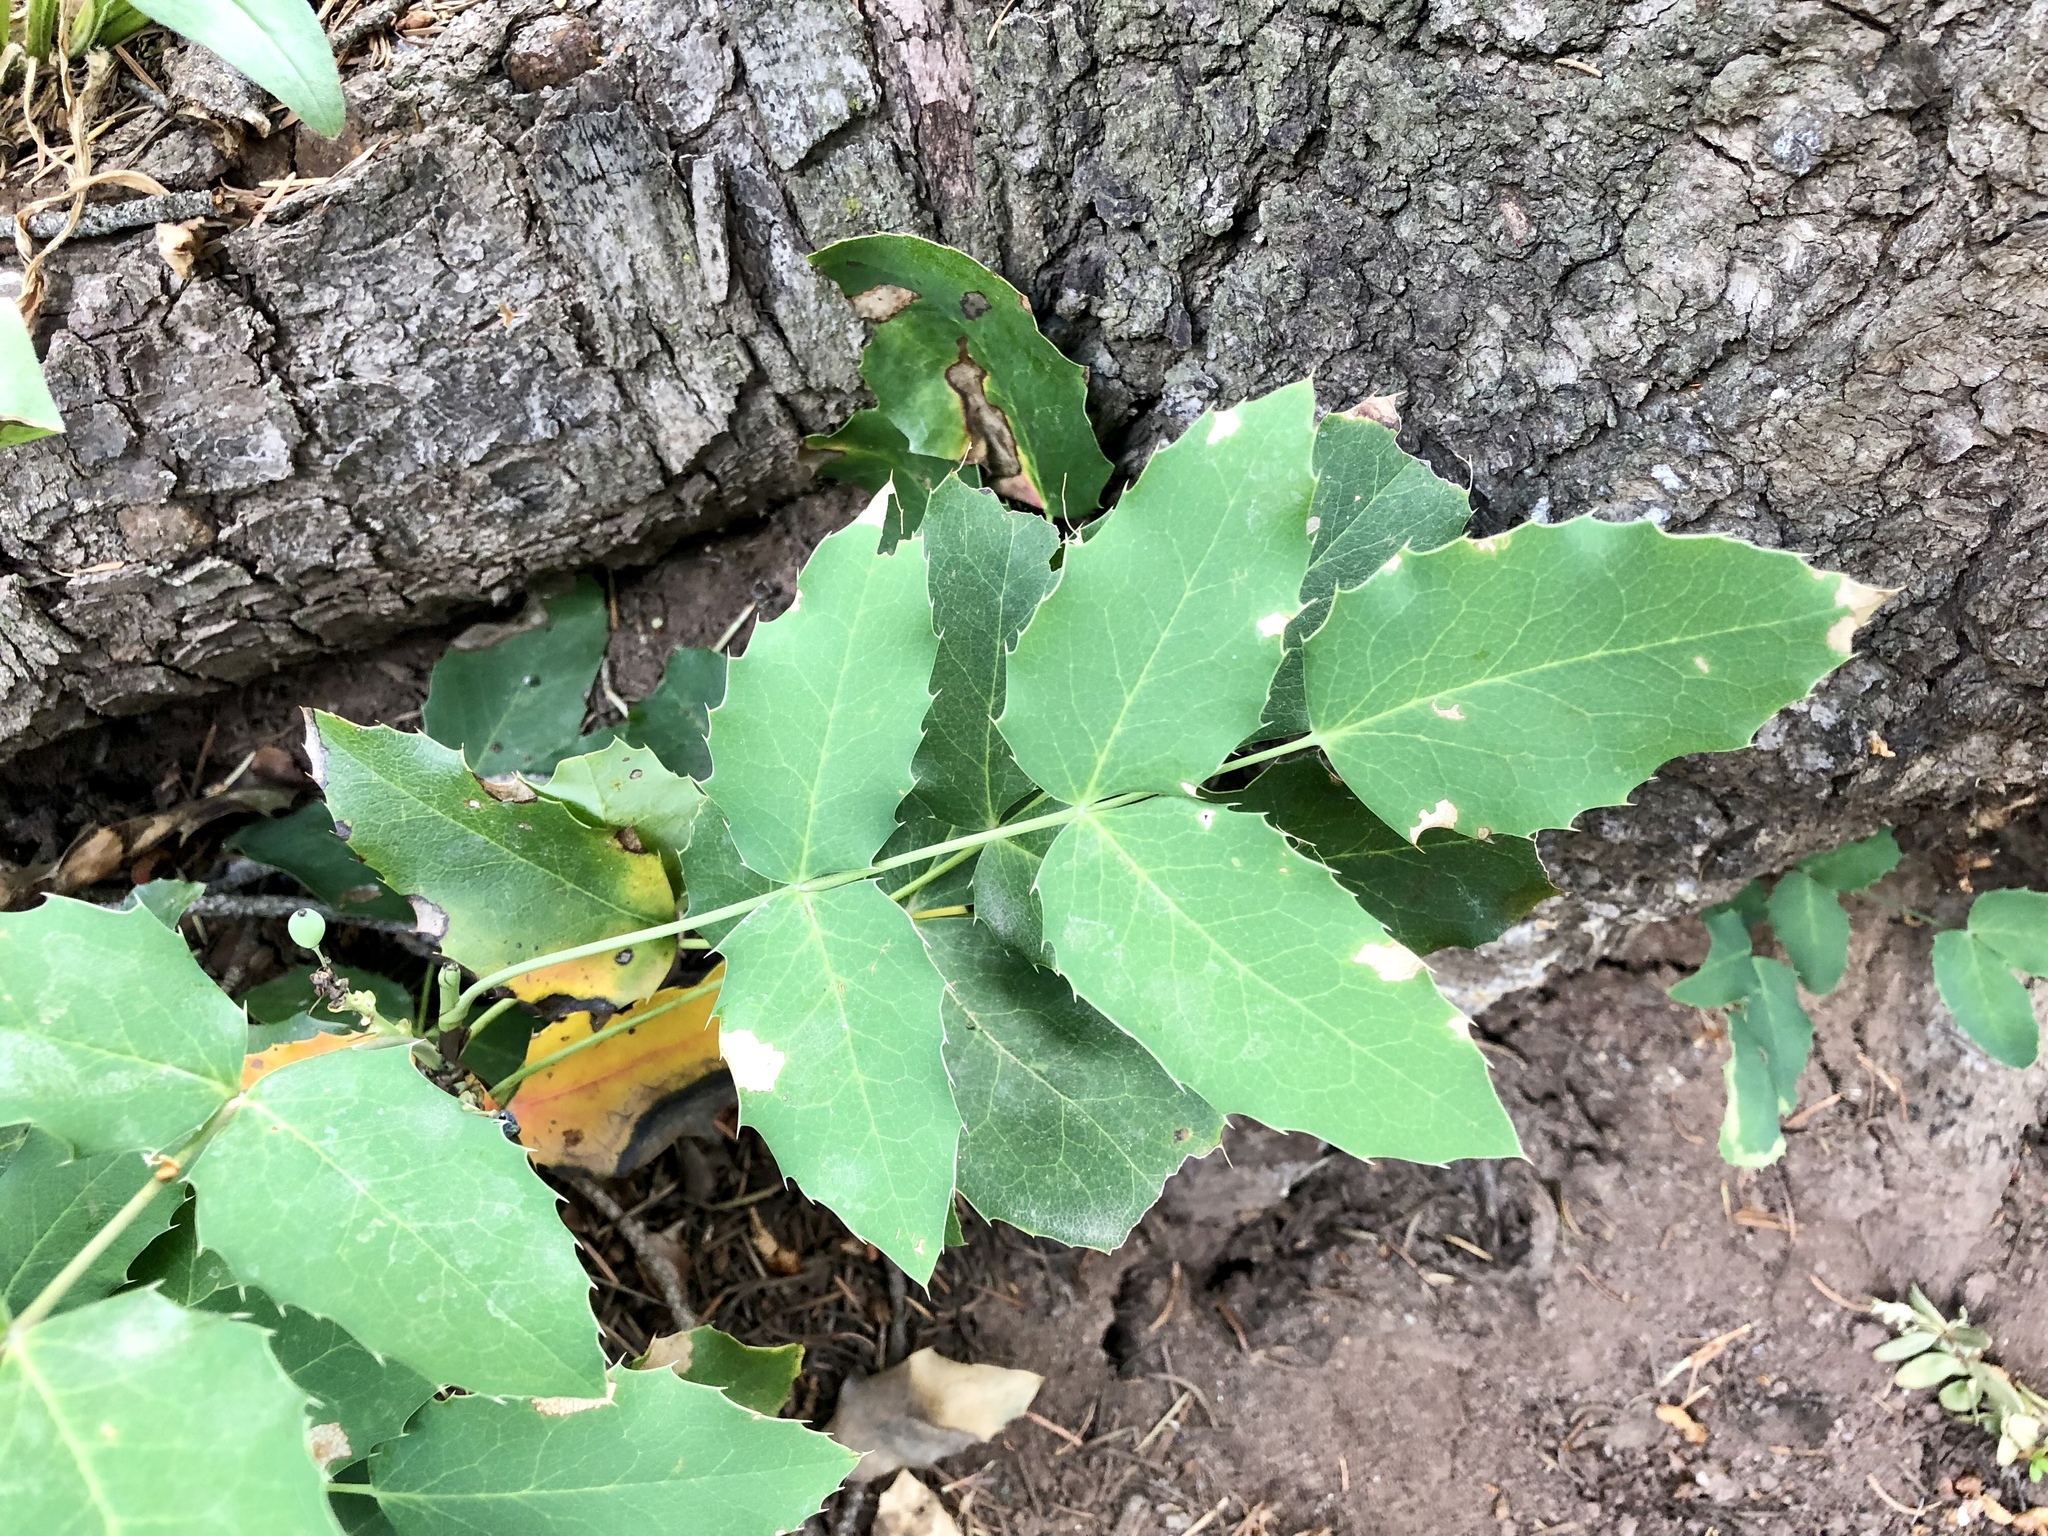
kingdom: Plantae
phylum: Tracheophyta
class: Magnoliopsida
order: Ranunculales
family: Berberidaceae
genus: Mahonia
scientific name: Mahonia repens
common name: Creeping oregon-grape
